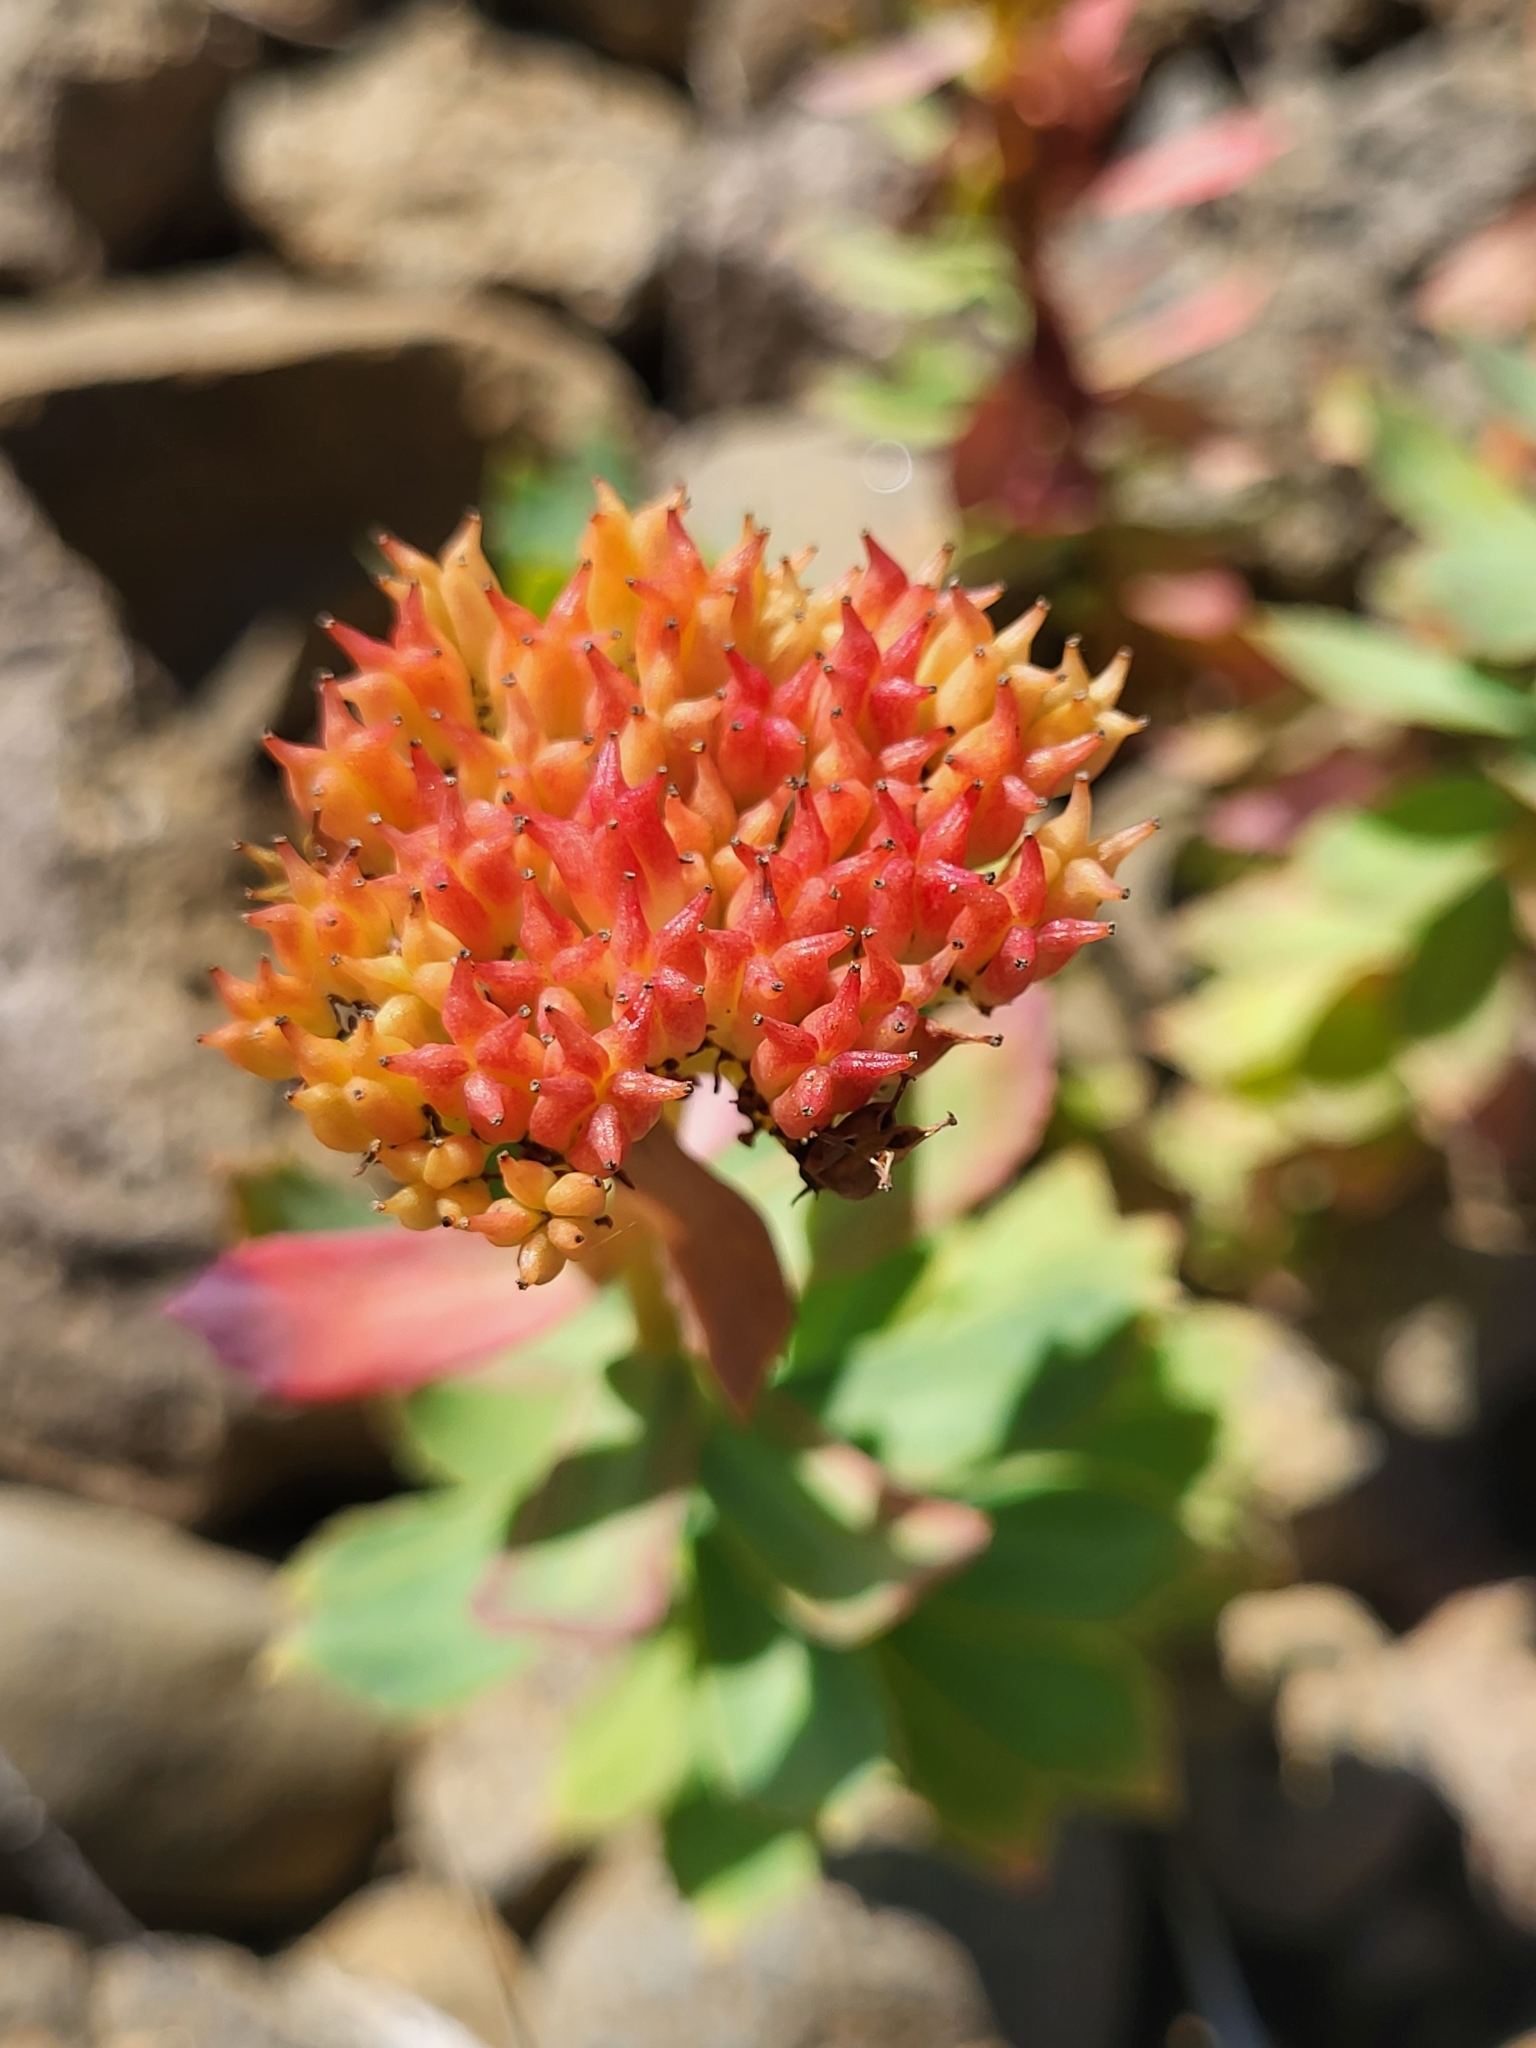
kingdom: Plantae
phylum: Tracheophyta
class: Magnoliopsida
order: Saxifragales
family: Crassulaceae
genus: Rhodiola
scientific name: Rhodiola rosea
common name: Roseroot
